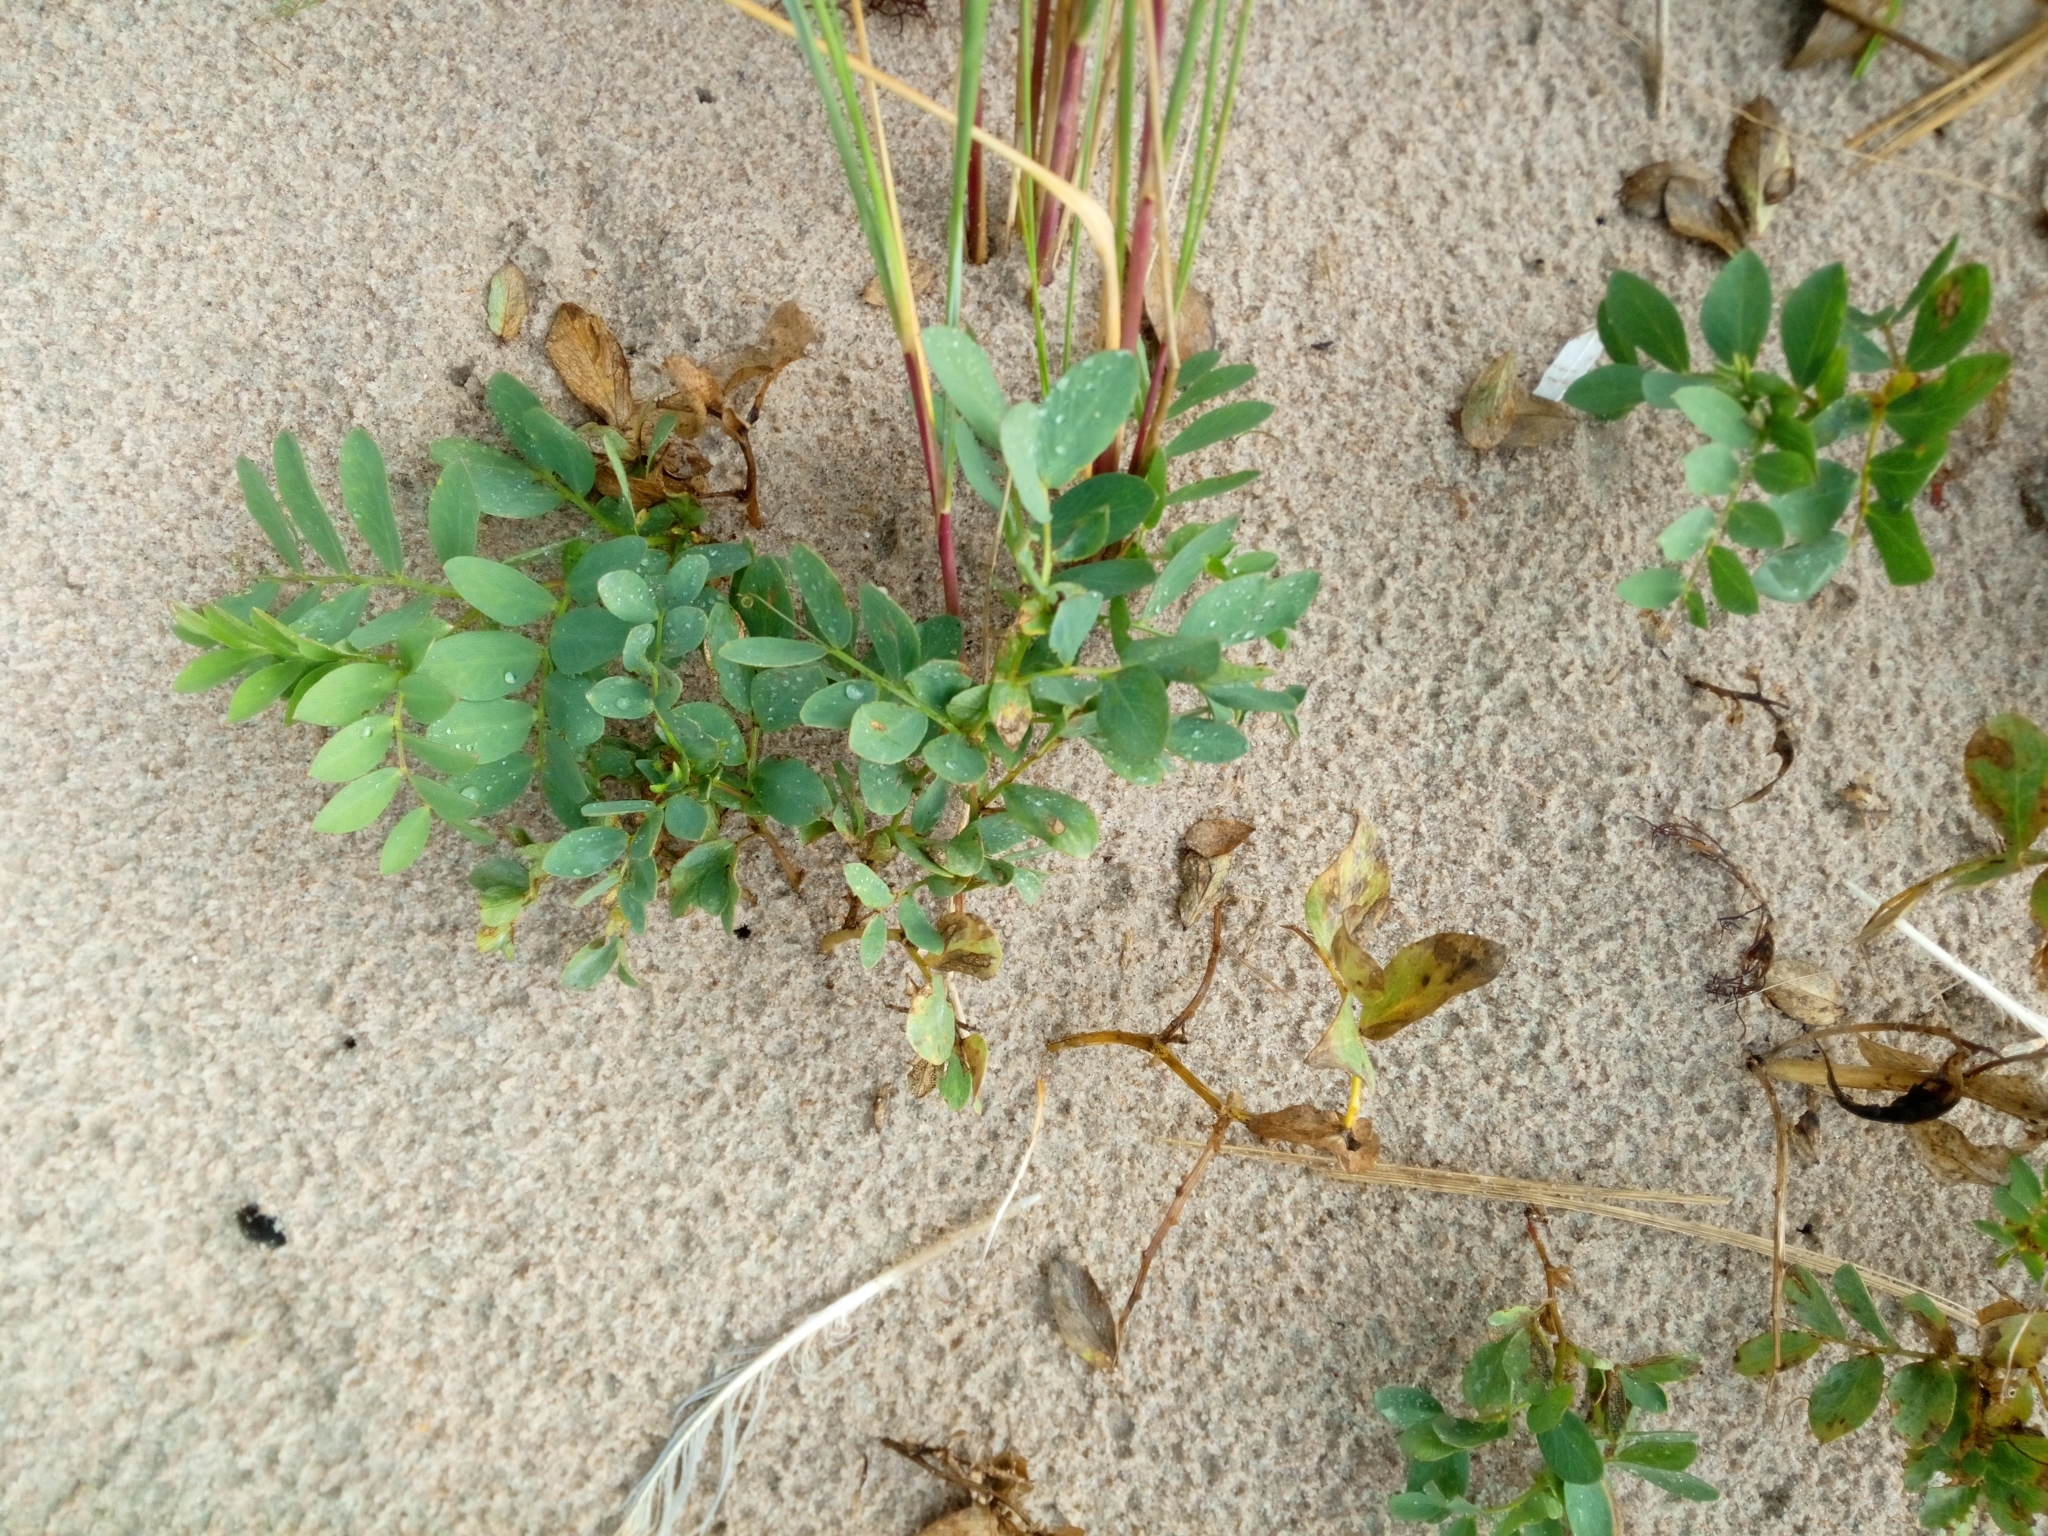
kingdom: Plantae
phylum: Tracheophyta
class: Magnoliopsida
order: Fabales
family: Fabaceae
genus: Lathyrus
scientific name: Lathyrus japonicus
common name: Sea pea
